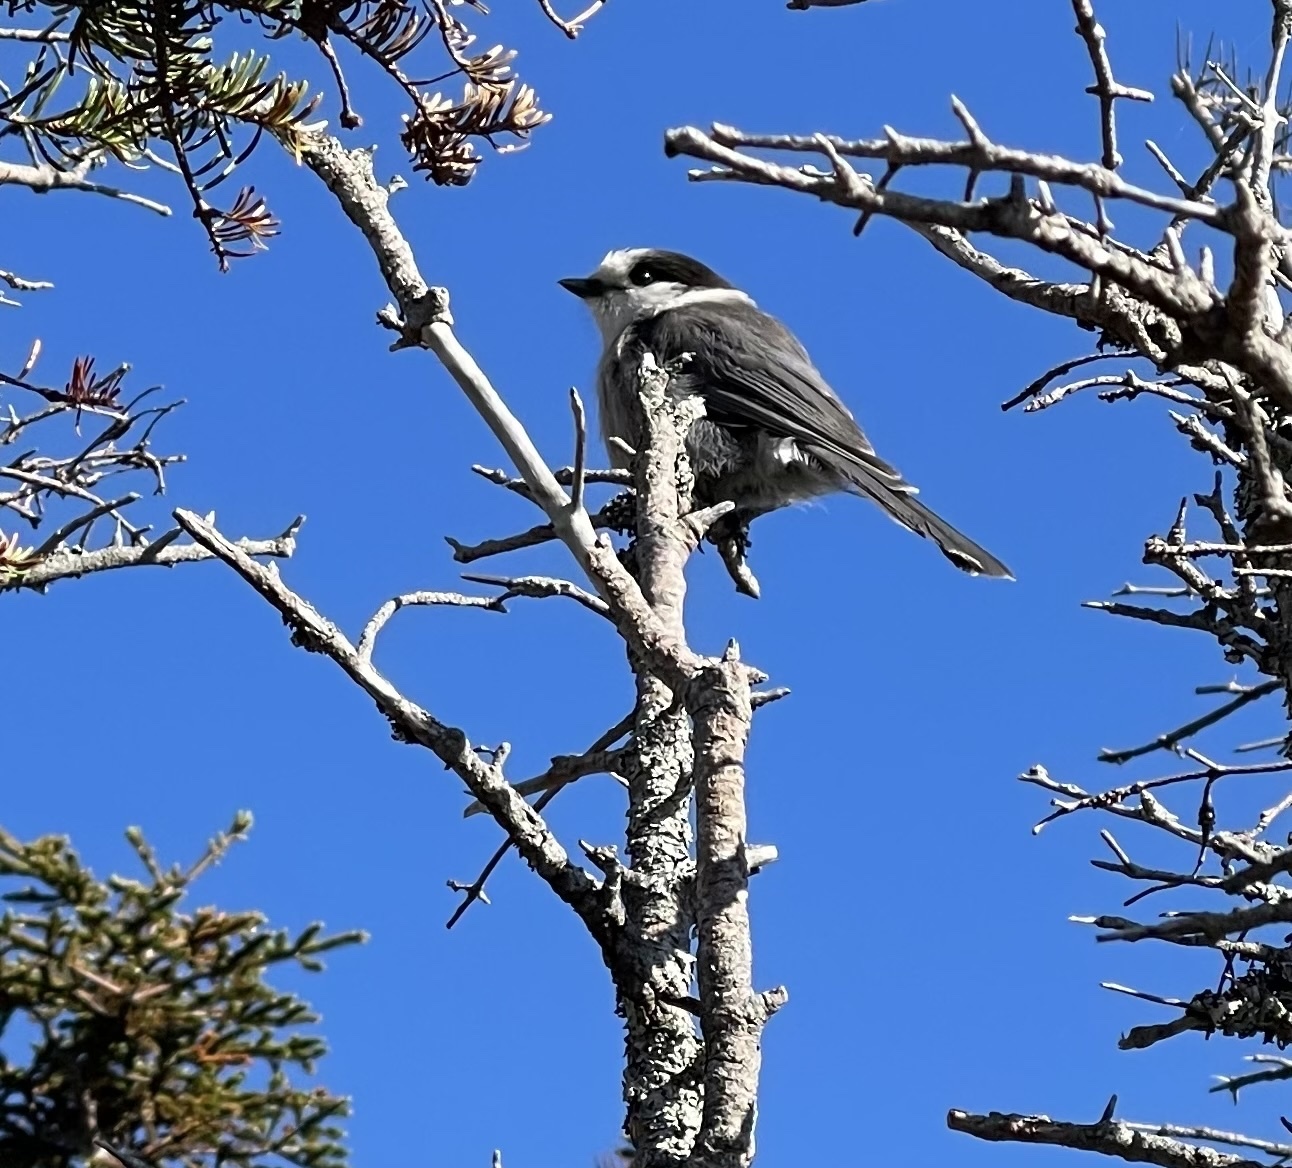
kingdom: Animalia
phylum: Chordata
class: Aves
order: Passeriformes
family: Corvidae
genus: Perisoreus
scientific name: Perisoreus canadensis
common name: Gray jay
